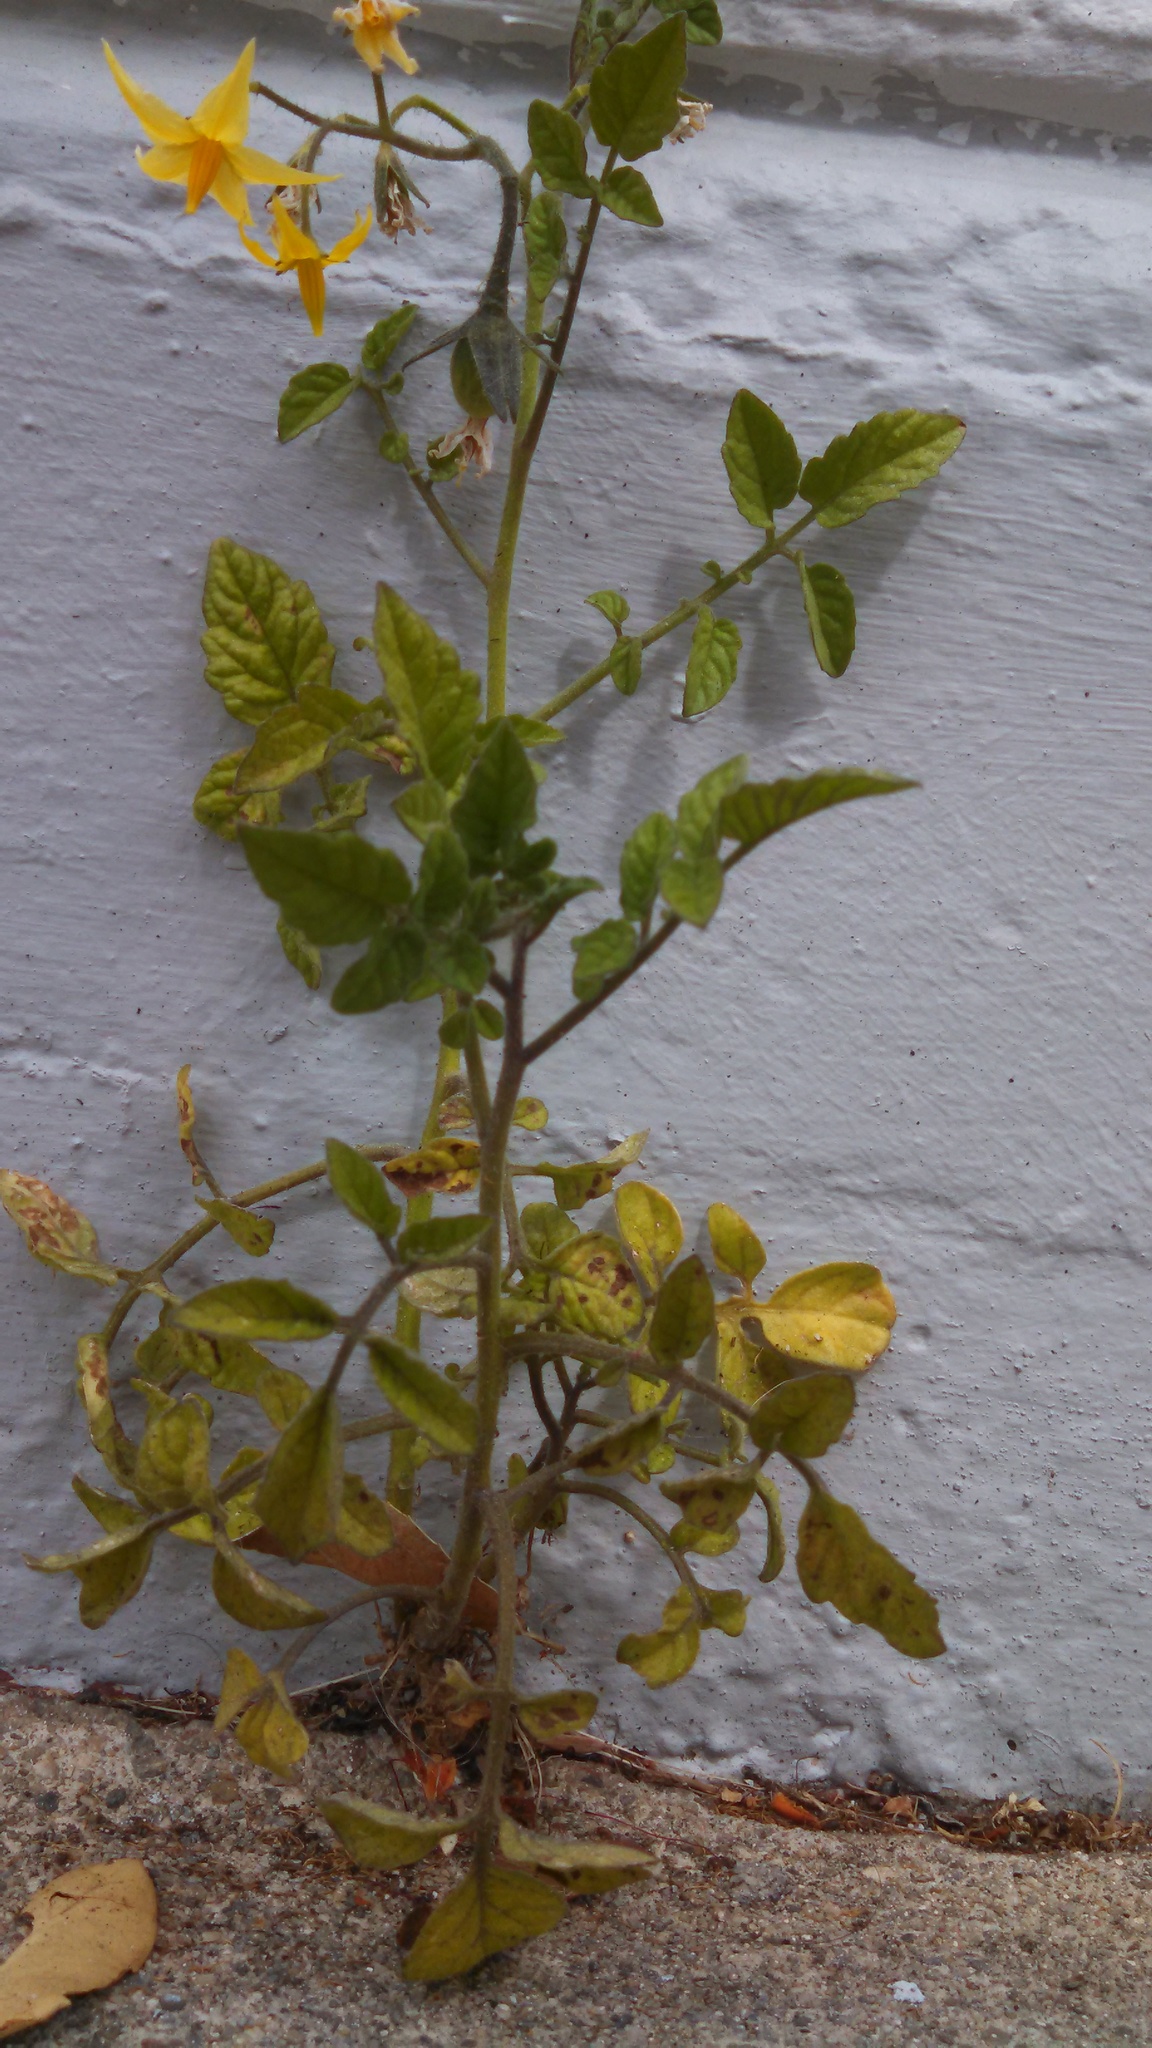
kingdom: Plantae
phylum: Tracheophyta
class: Magnoliopsida
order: Solanales
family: Solanaceae
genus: Solanum
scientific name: Solanum lycopersicum
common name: Garden tomato
